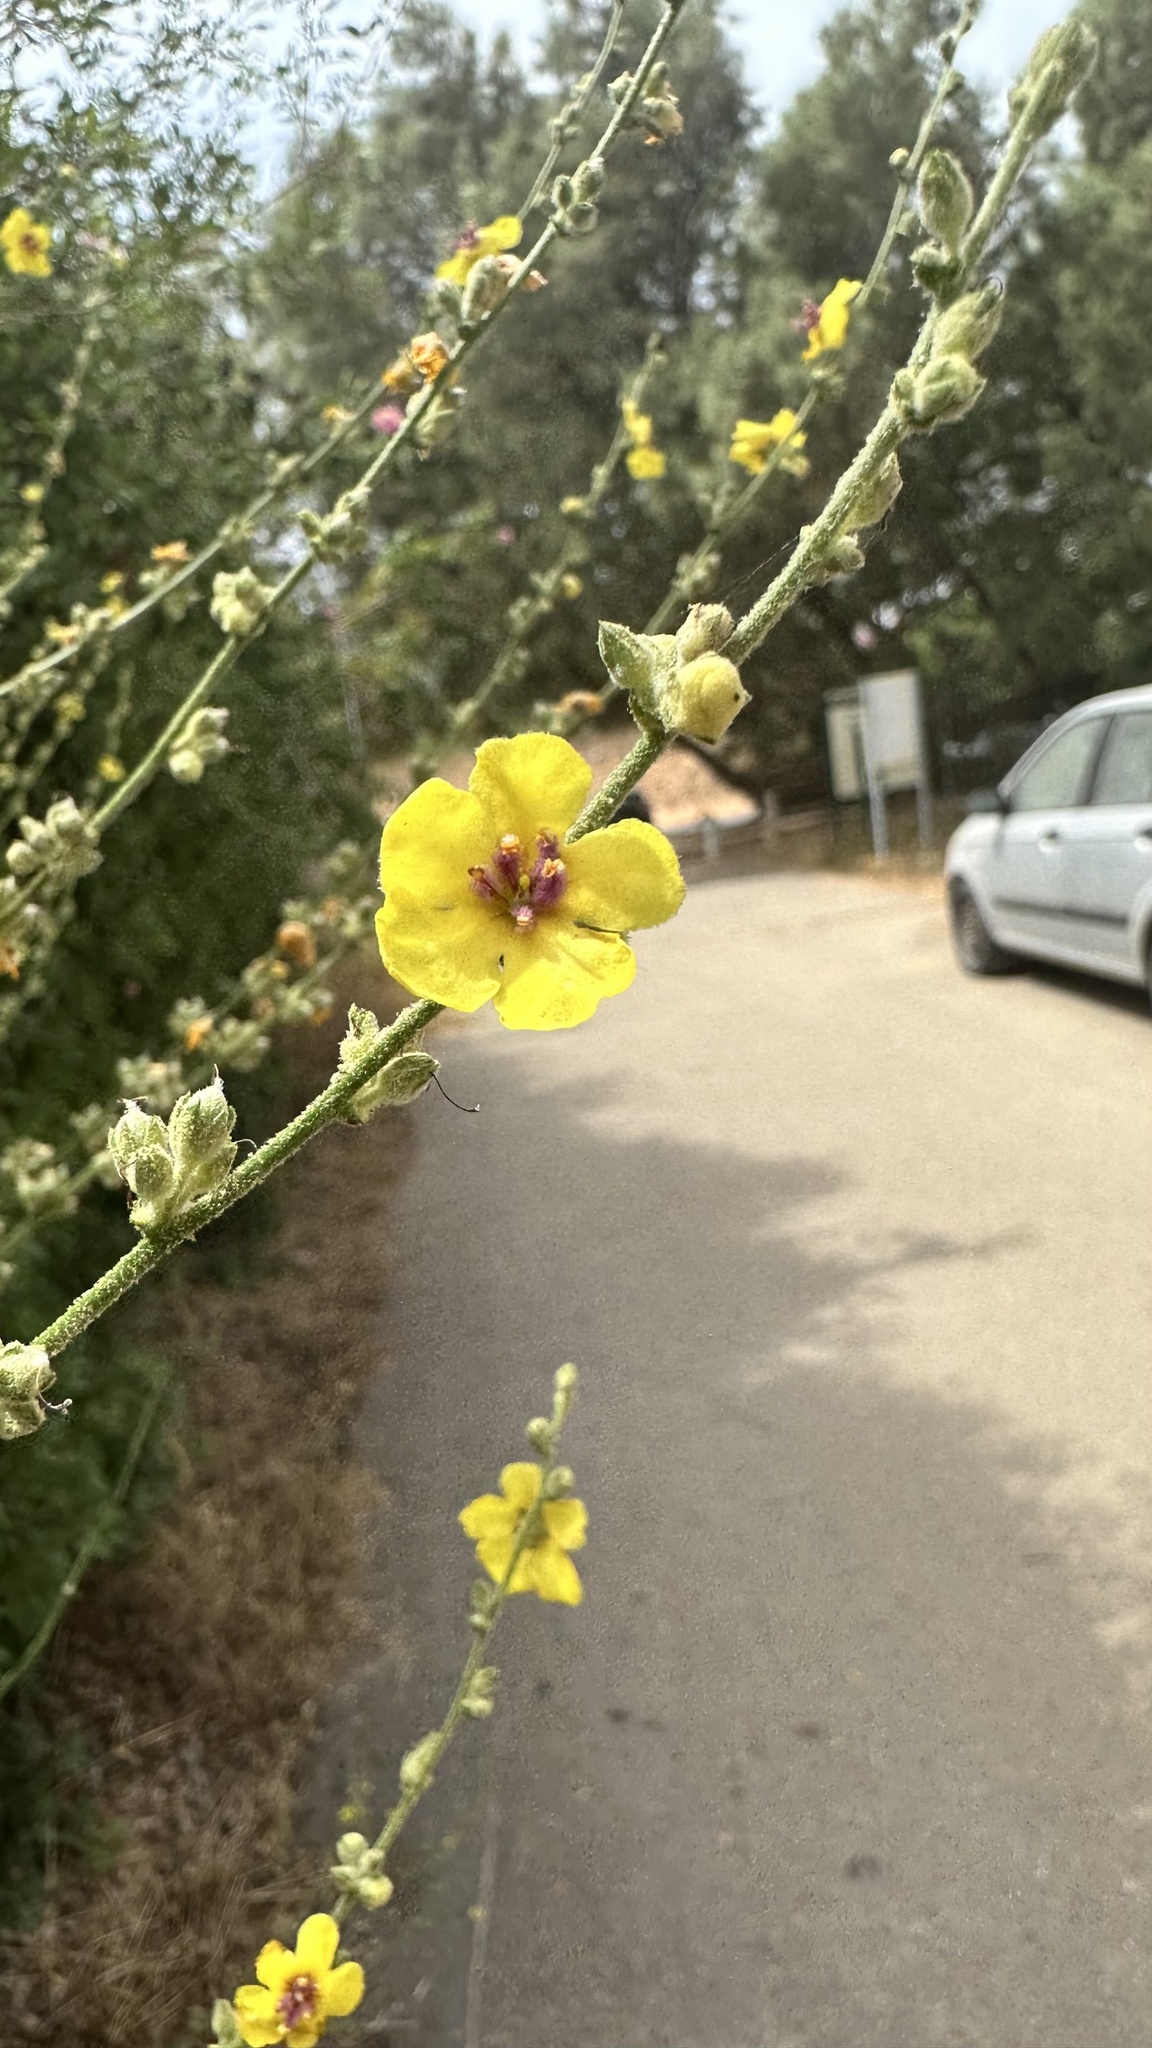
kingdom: Plantae
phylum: Tracheophyta
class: Magnoliopsida
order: Lamiales
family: Scrophulariaceae
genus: Verbascum
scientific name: Verbascum sinuatum
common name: Wavyleaf mullein
